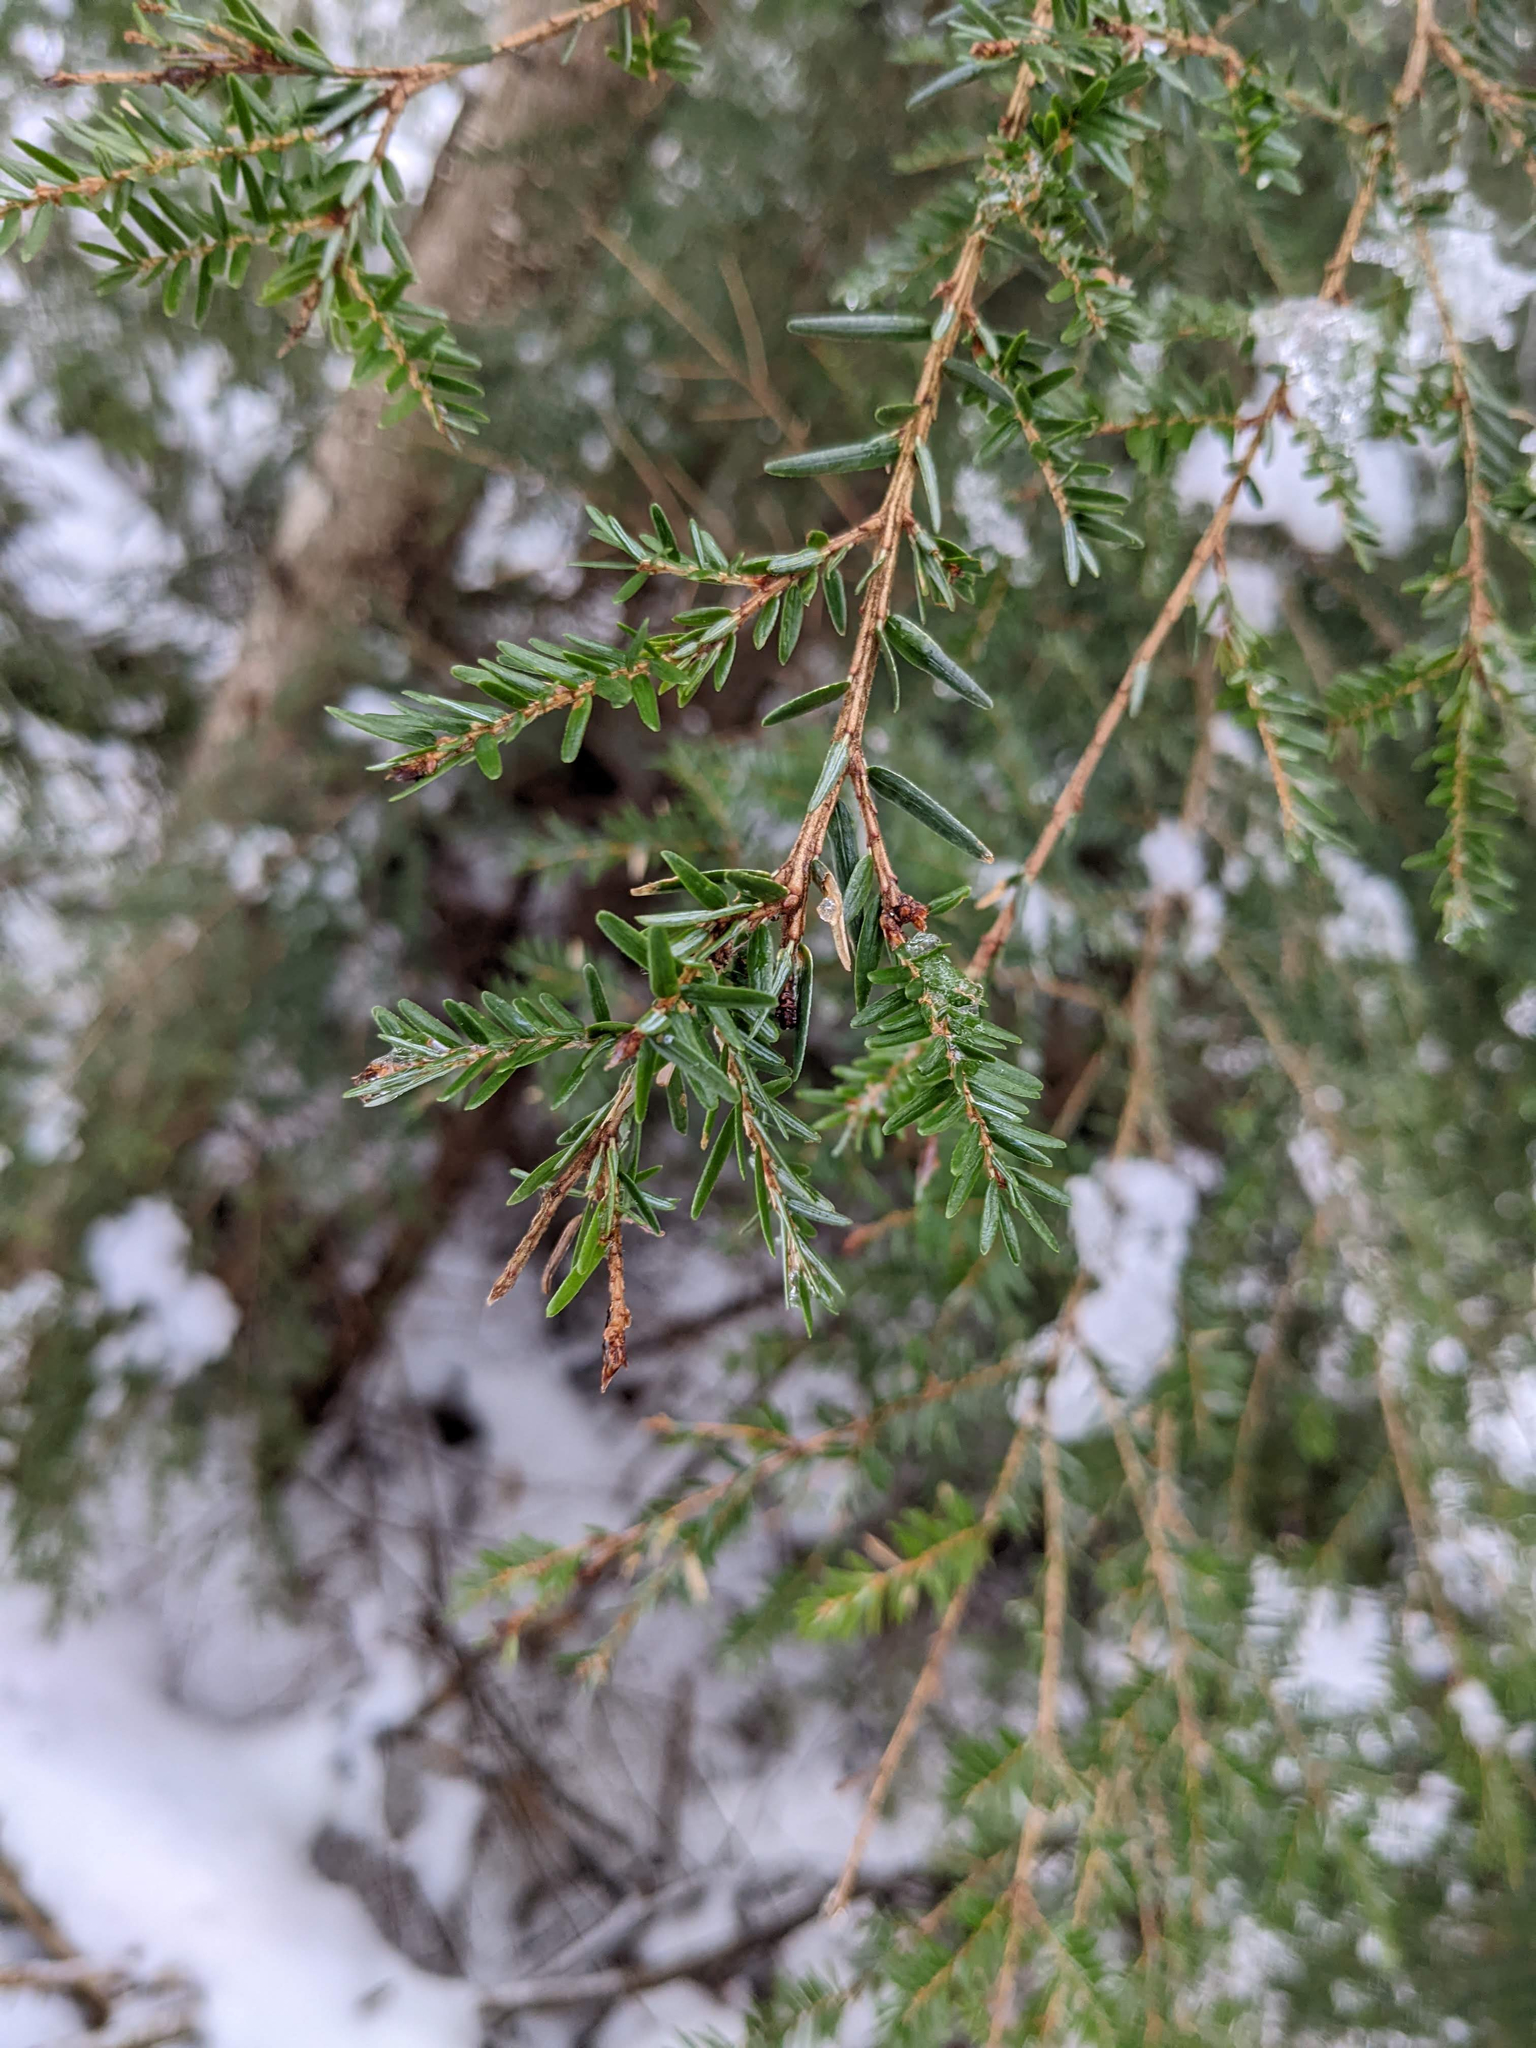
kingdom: Plantae
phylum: Tracheophyta
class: Pinopsida
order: Pinales
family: Pinaceae
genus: Tsuga
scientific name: Tsuga canadensis
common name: Eastern hemlock
